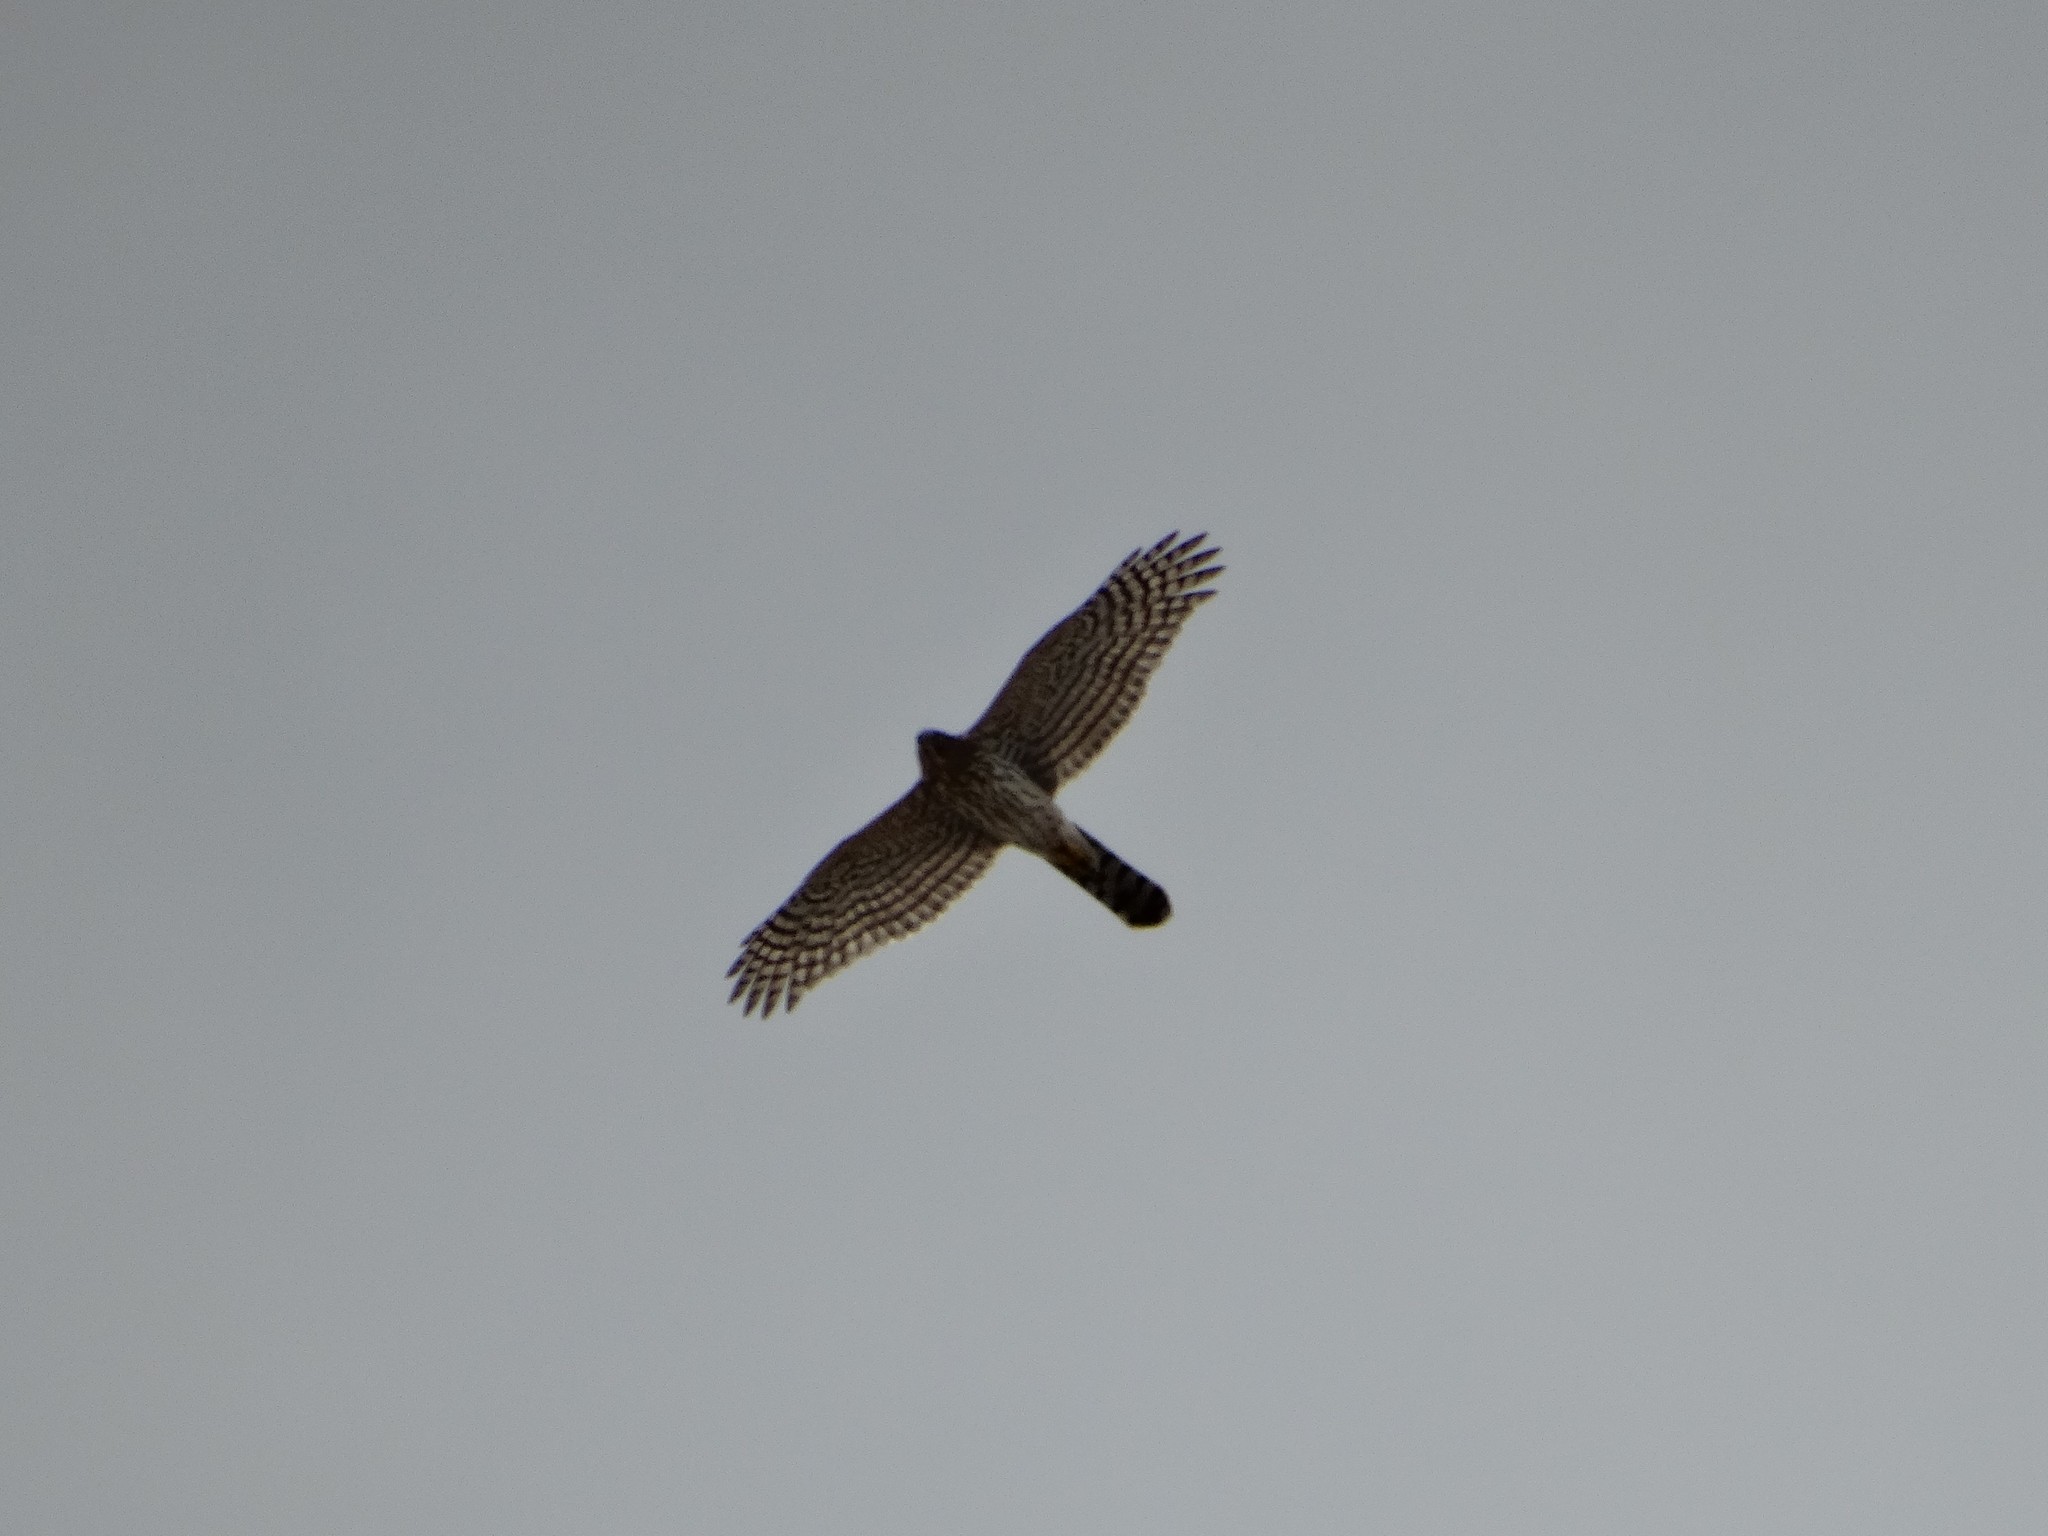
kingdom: Animalia
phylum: Chordata
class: Aves
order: Accipitriformes
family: Accipitridae
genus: Accipiter
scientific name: Accipiter cooperii
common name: Cooper's hawk
